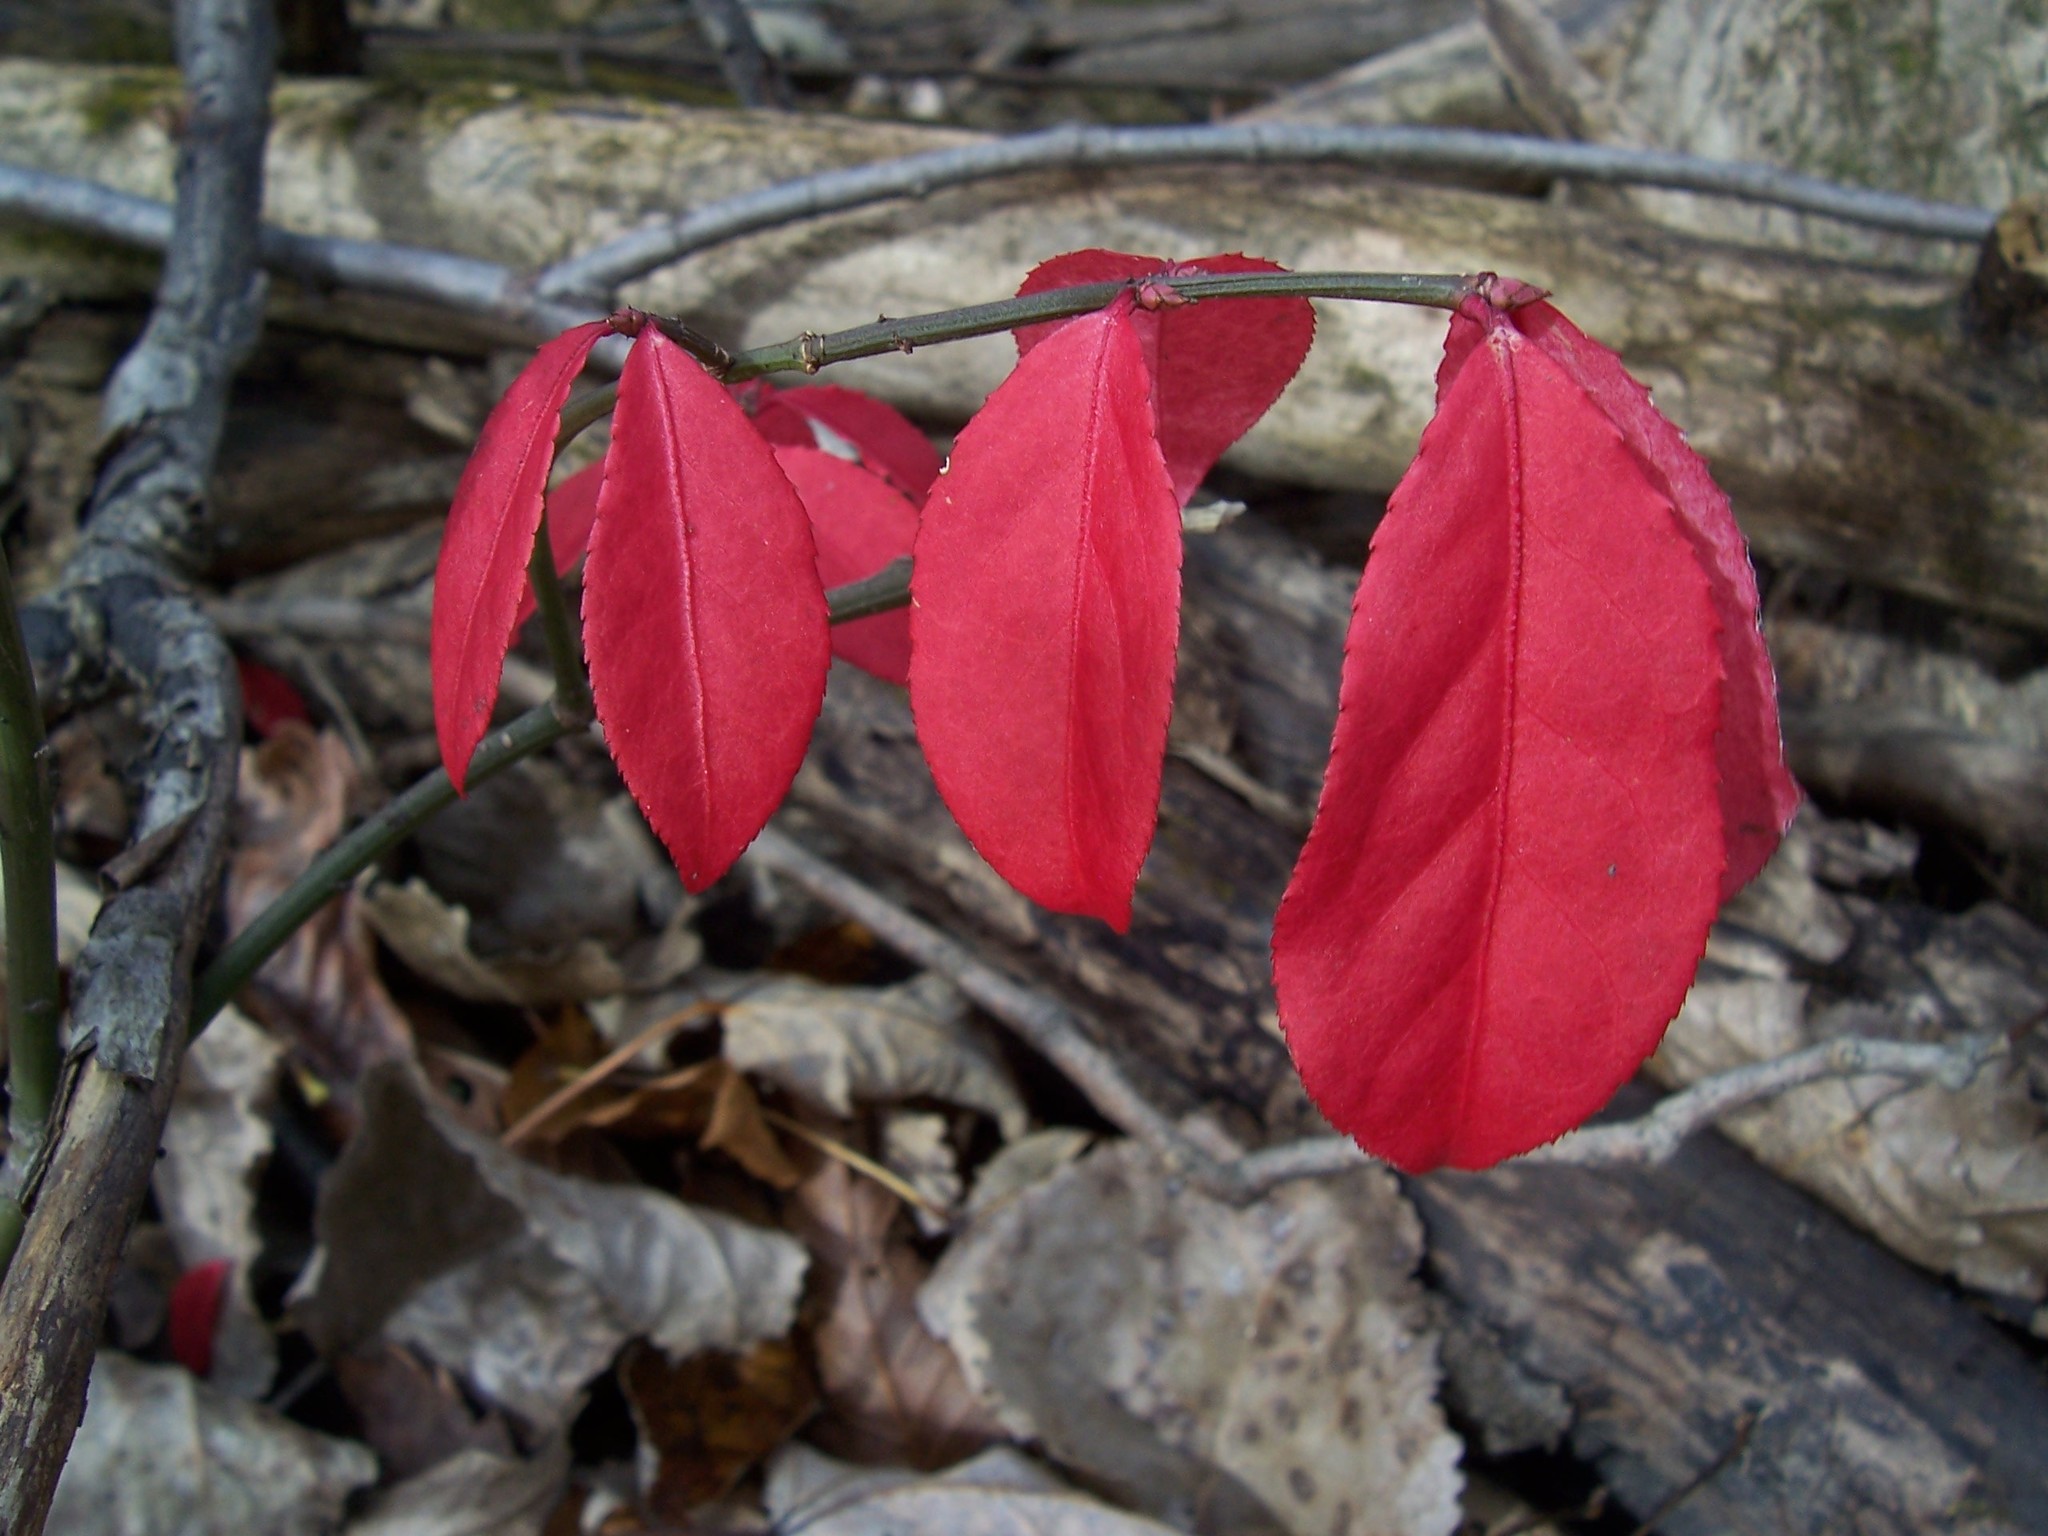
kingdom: Plantae
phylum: Tracheophyta
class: Magnoliopsida
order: Celastrales
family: Celastraceae
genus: Euonymus
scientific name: Euonymus alatus
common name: Winged euonymus
